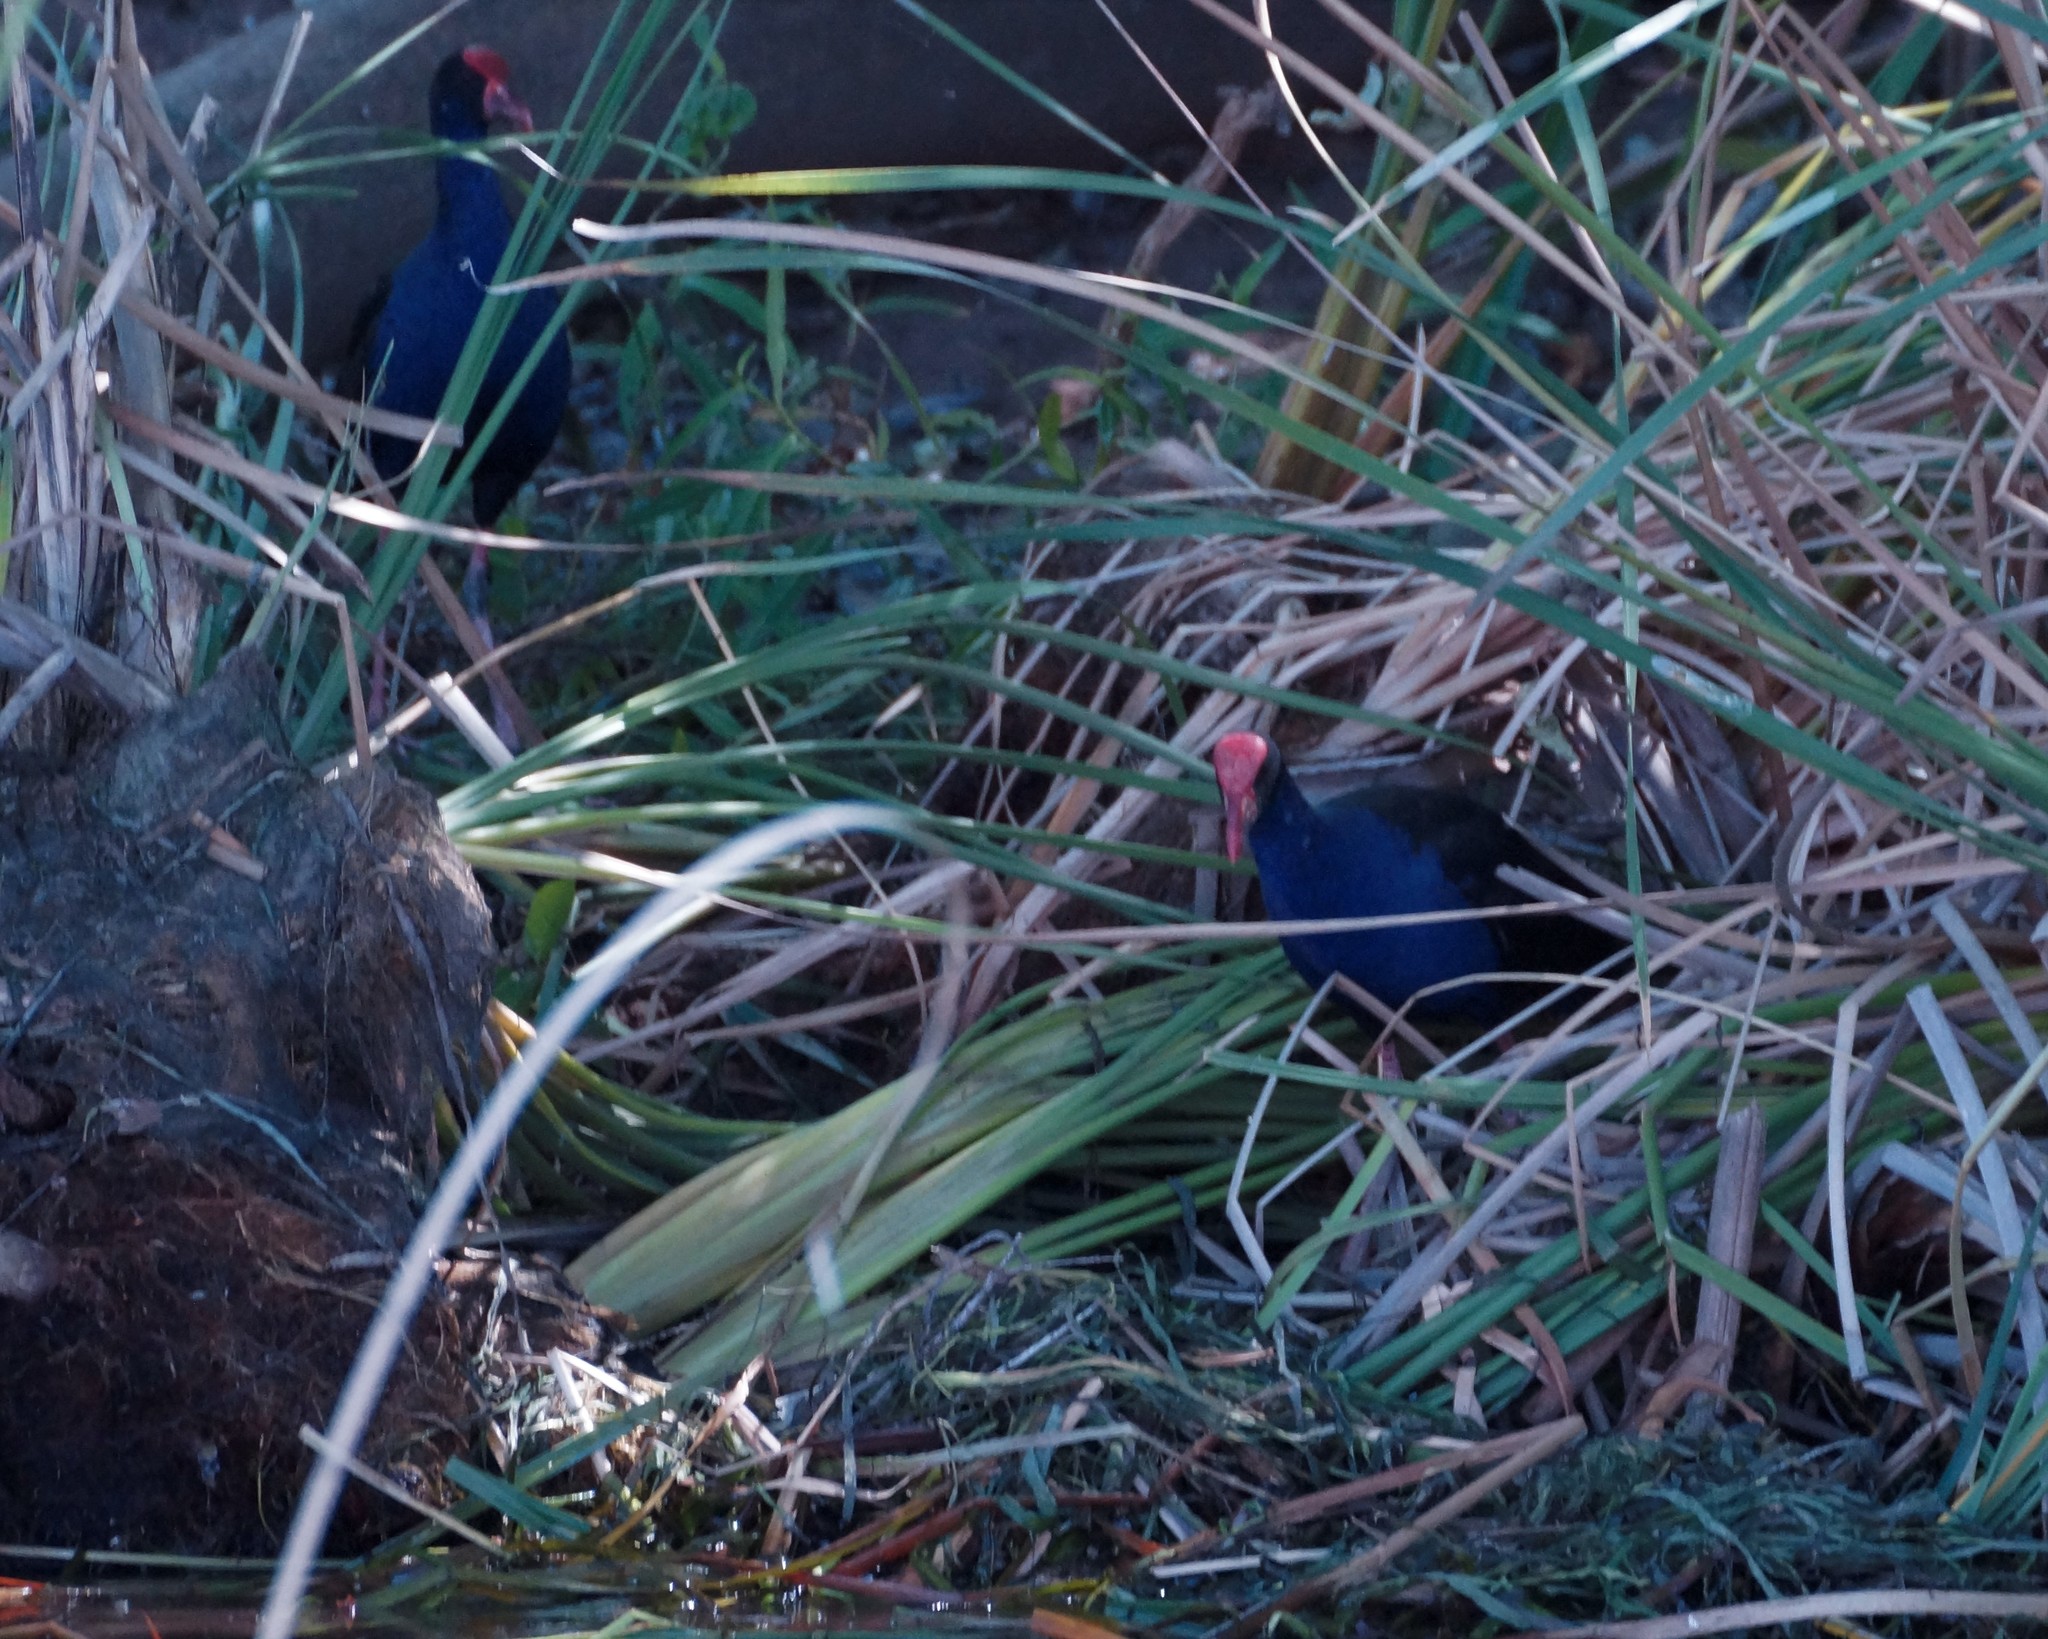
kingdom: Animalia
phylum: Chordata
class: Aves
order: Gruiformes
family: Rallidae
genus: Porphyrio
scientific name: Porphyrio melanotus
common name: Australasian swamphen
